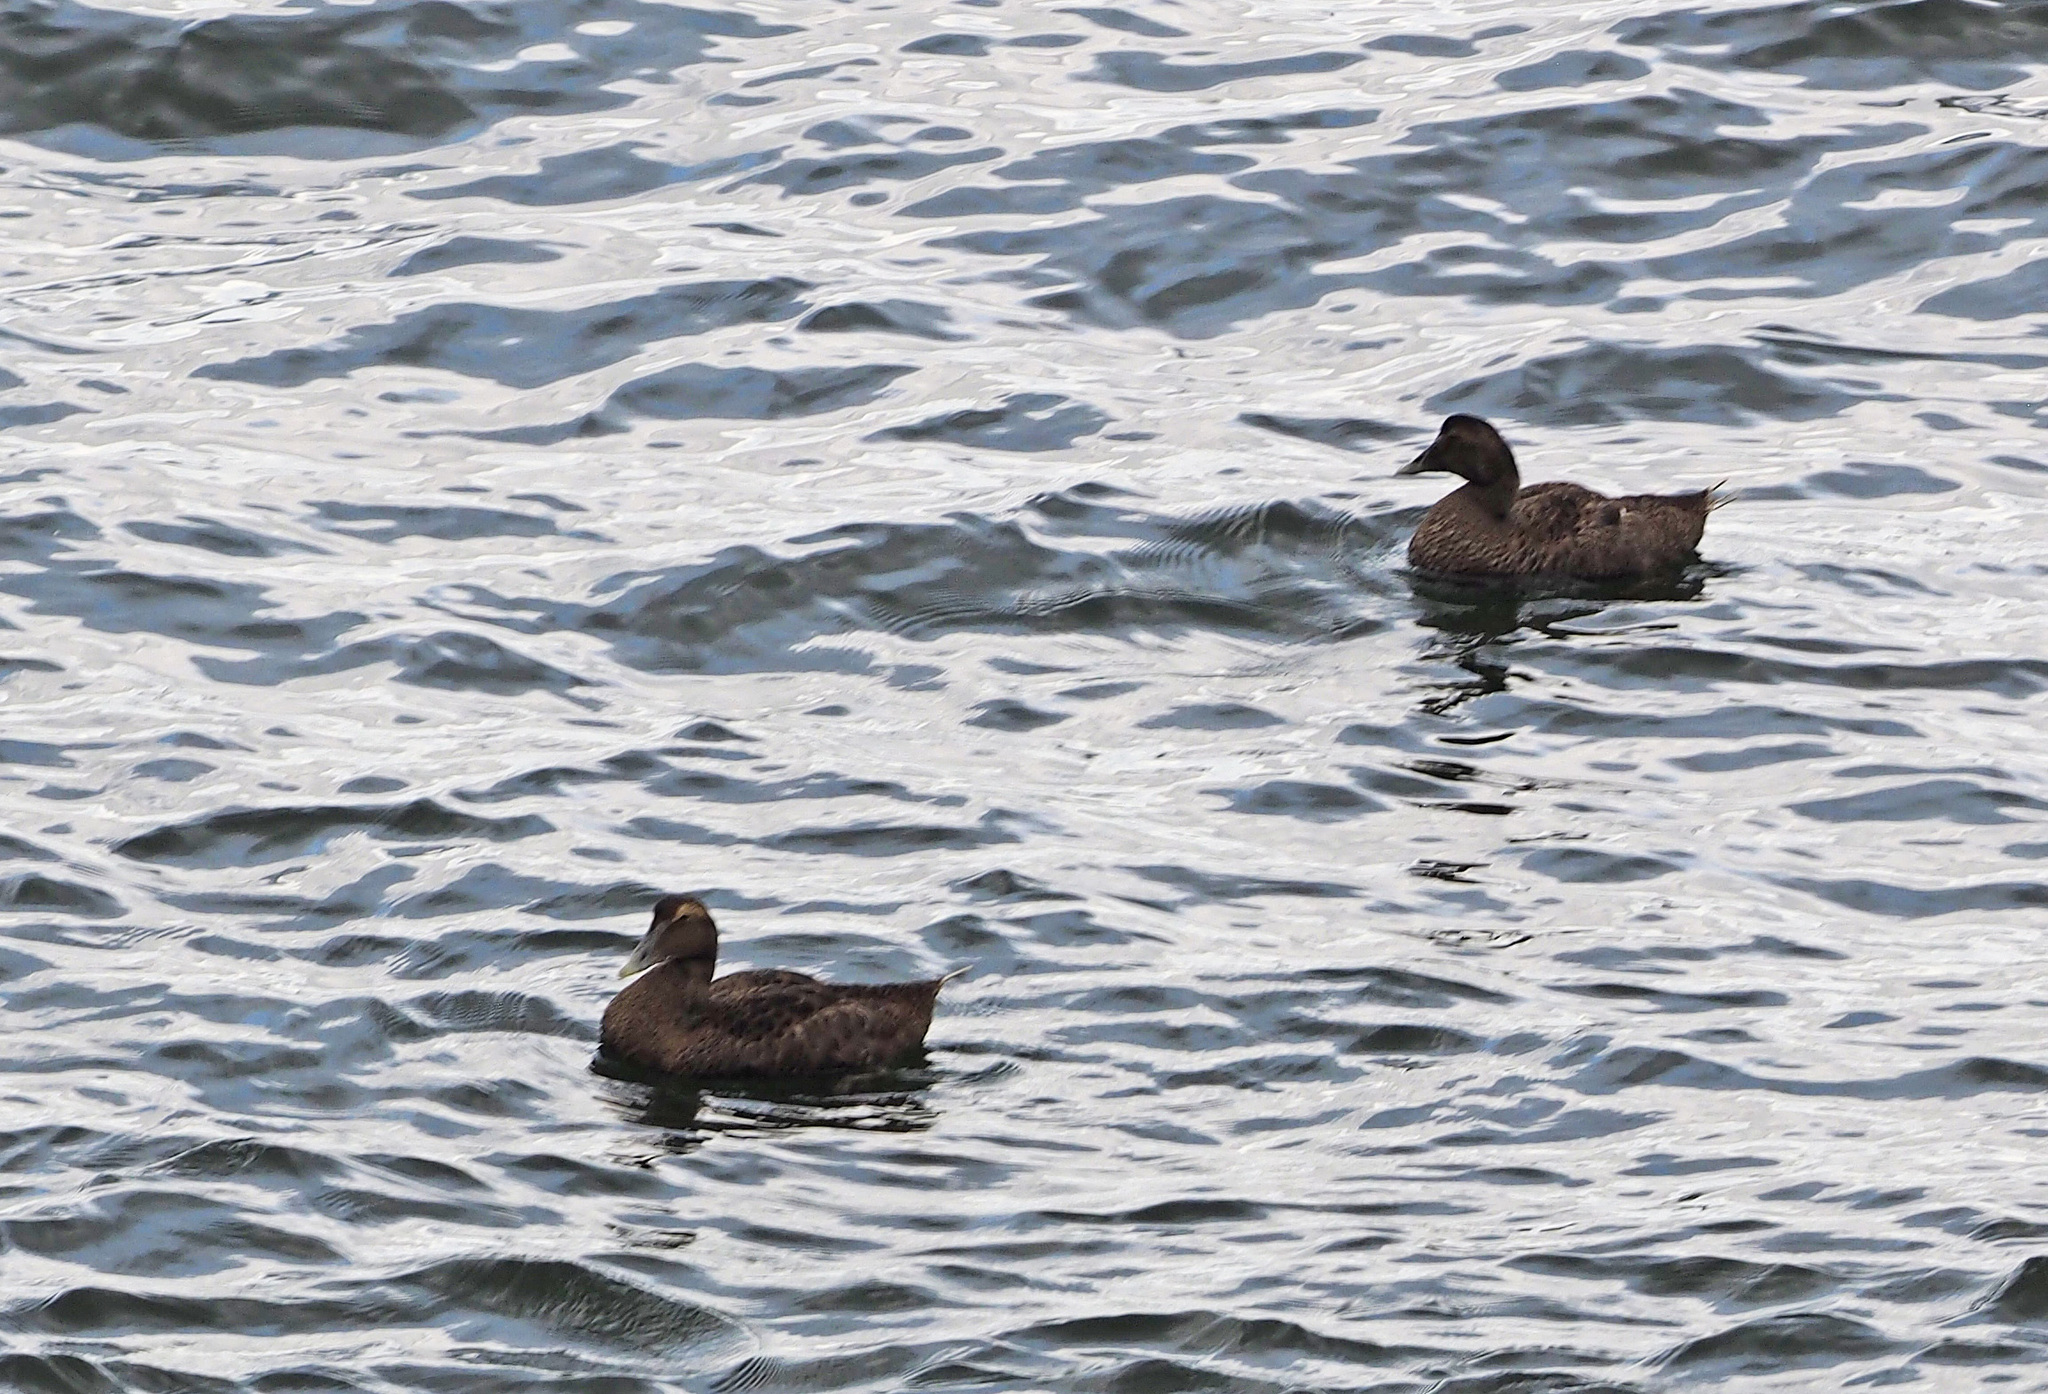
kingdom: Animalia
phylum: Chordata
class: Aves
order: Anseriformes
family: Anatidae
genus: Somateria
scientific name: Somateria mollissima
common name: Common eider
